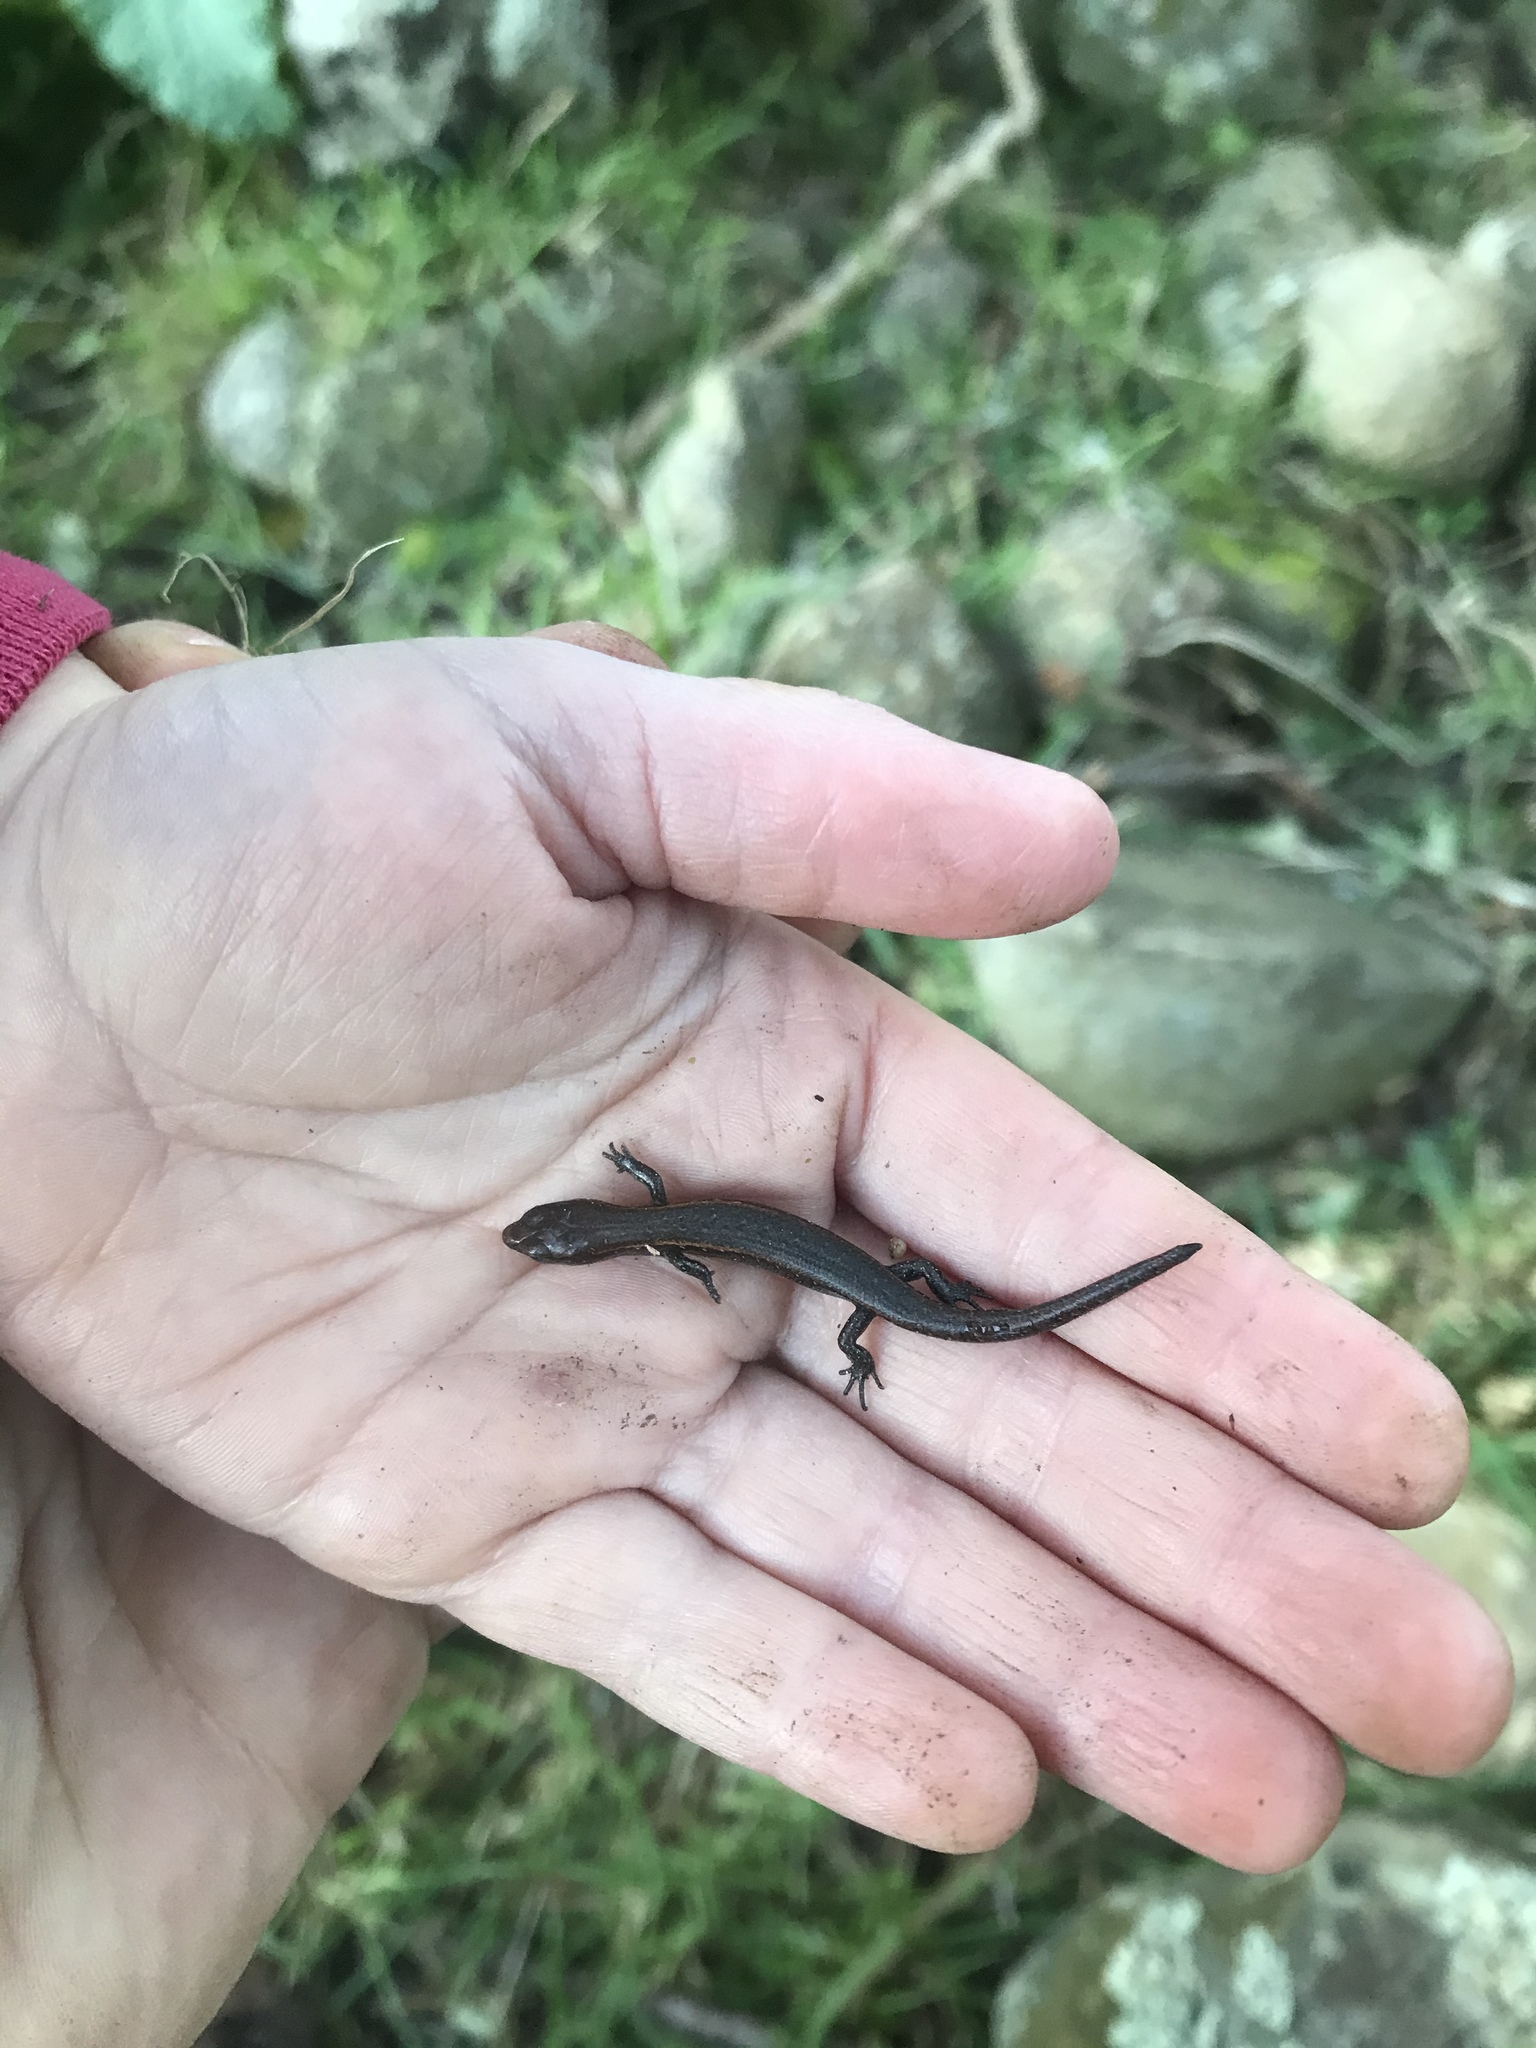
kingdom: Animalia
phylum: Chordata
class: Squamata
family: Scincidae
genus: Oligosoma
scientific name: Oligosoma aeneum
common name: Copper skink
